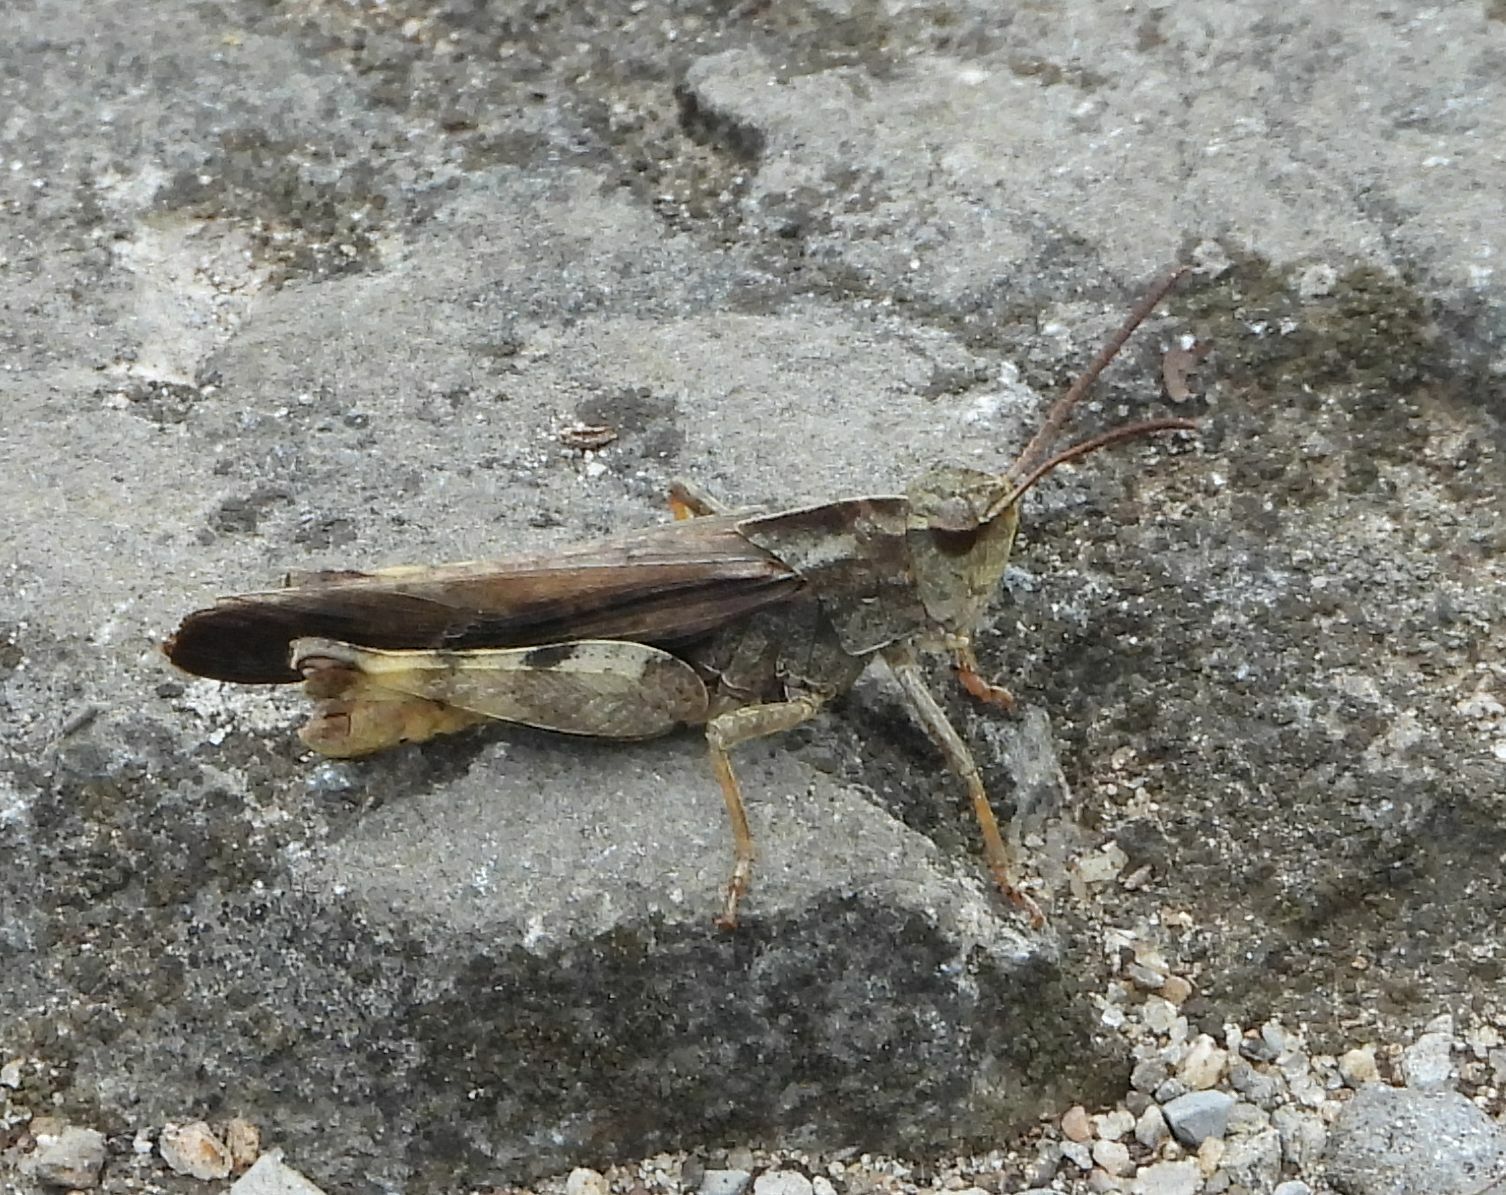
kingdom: Animalia
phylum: Arthropoda
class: Insecta
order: Orthoptera
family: Acrididae
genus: Chortophaga
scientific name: Chortophaga viridifasciata
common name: Green-striped grasshopper
